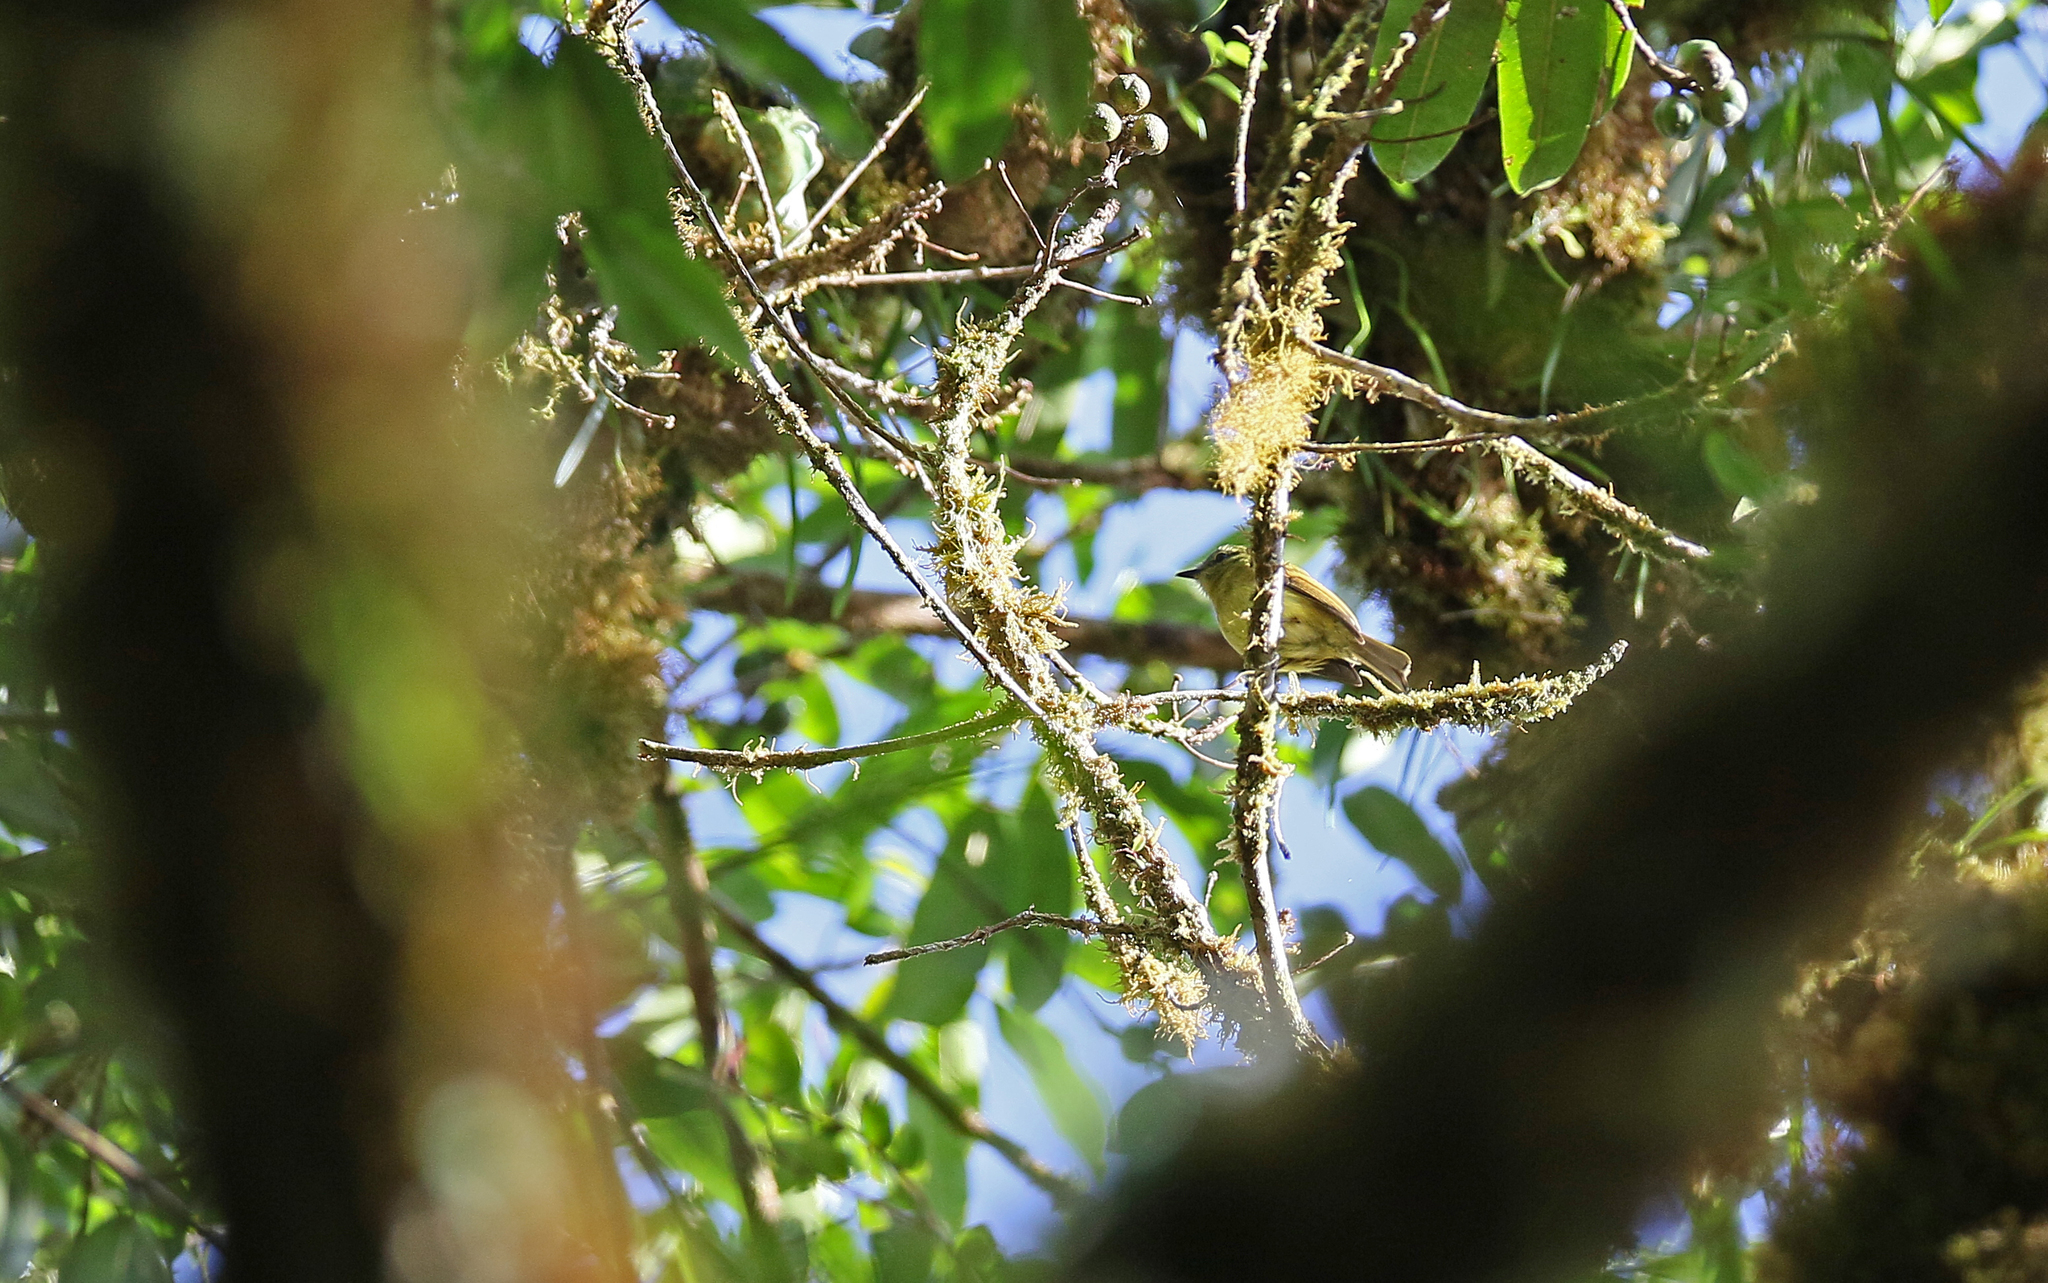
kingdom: Animalia
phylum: Chordata
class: Aves
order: Passeriformes
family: Tyrannidae
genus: Myiophobus
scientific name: Myiophobus flavicans
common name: Flavescent flycatcher
